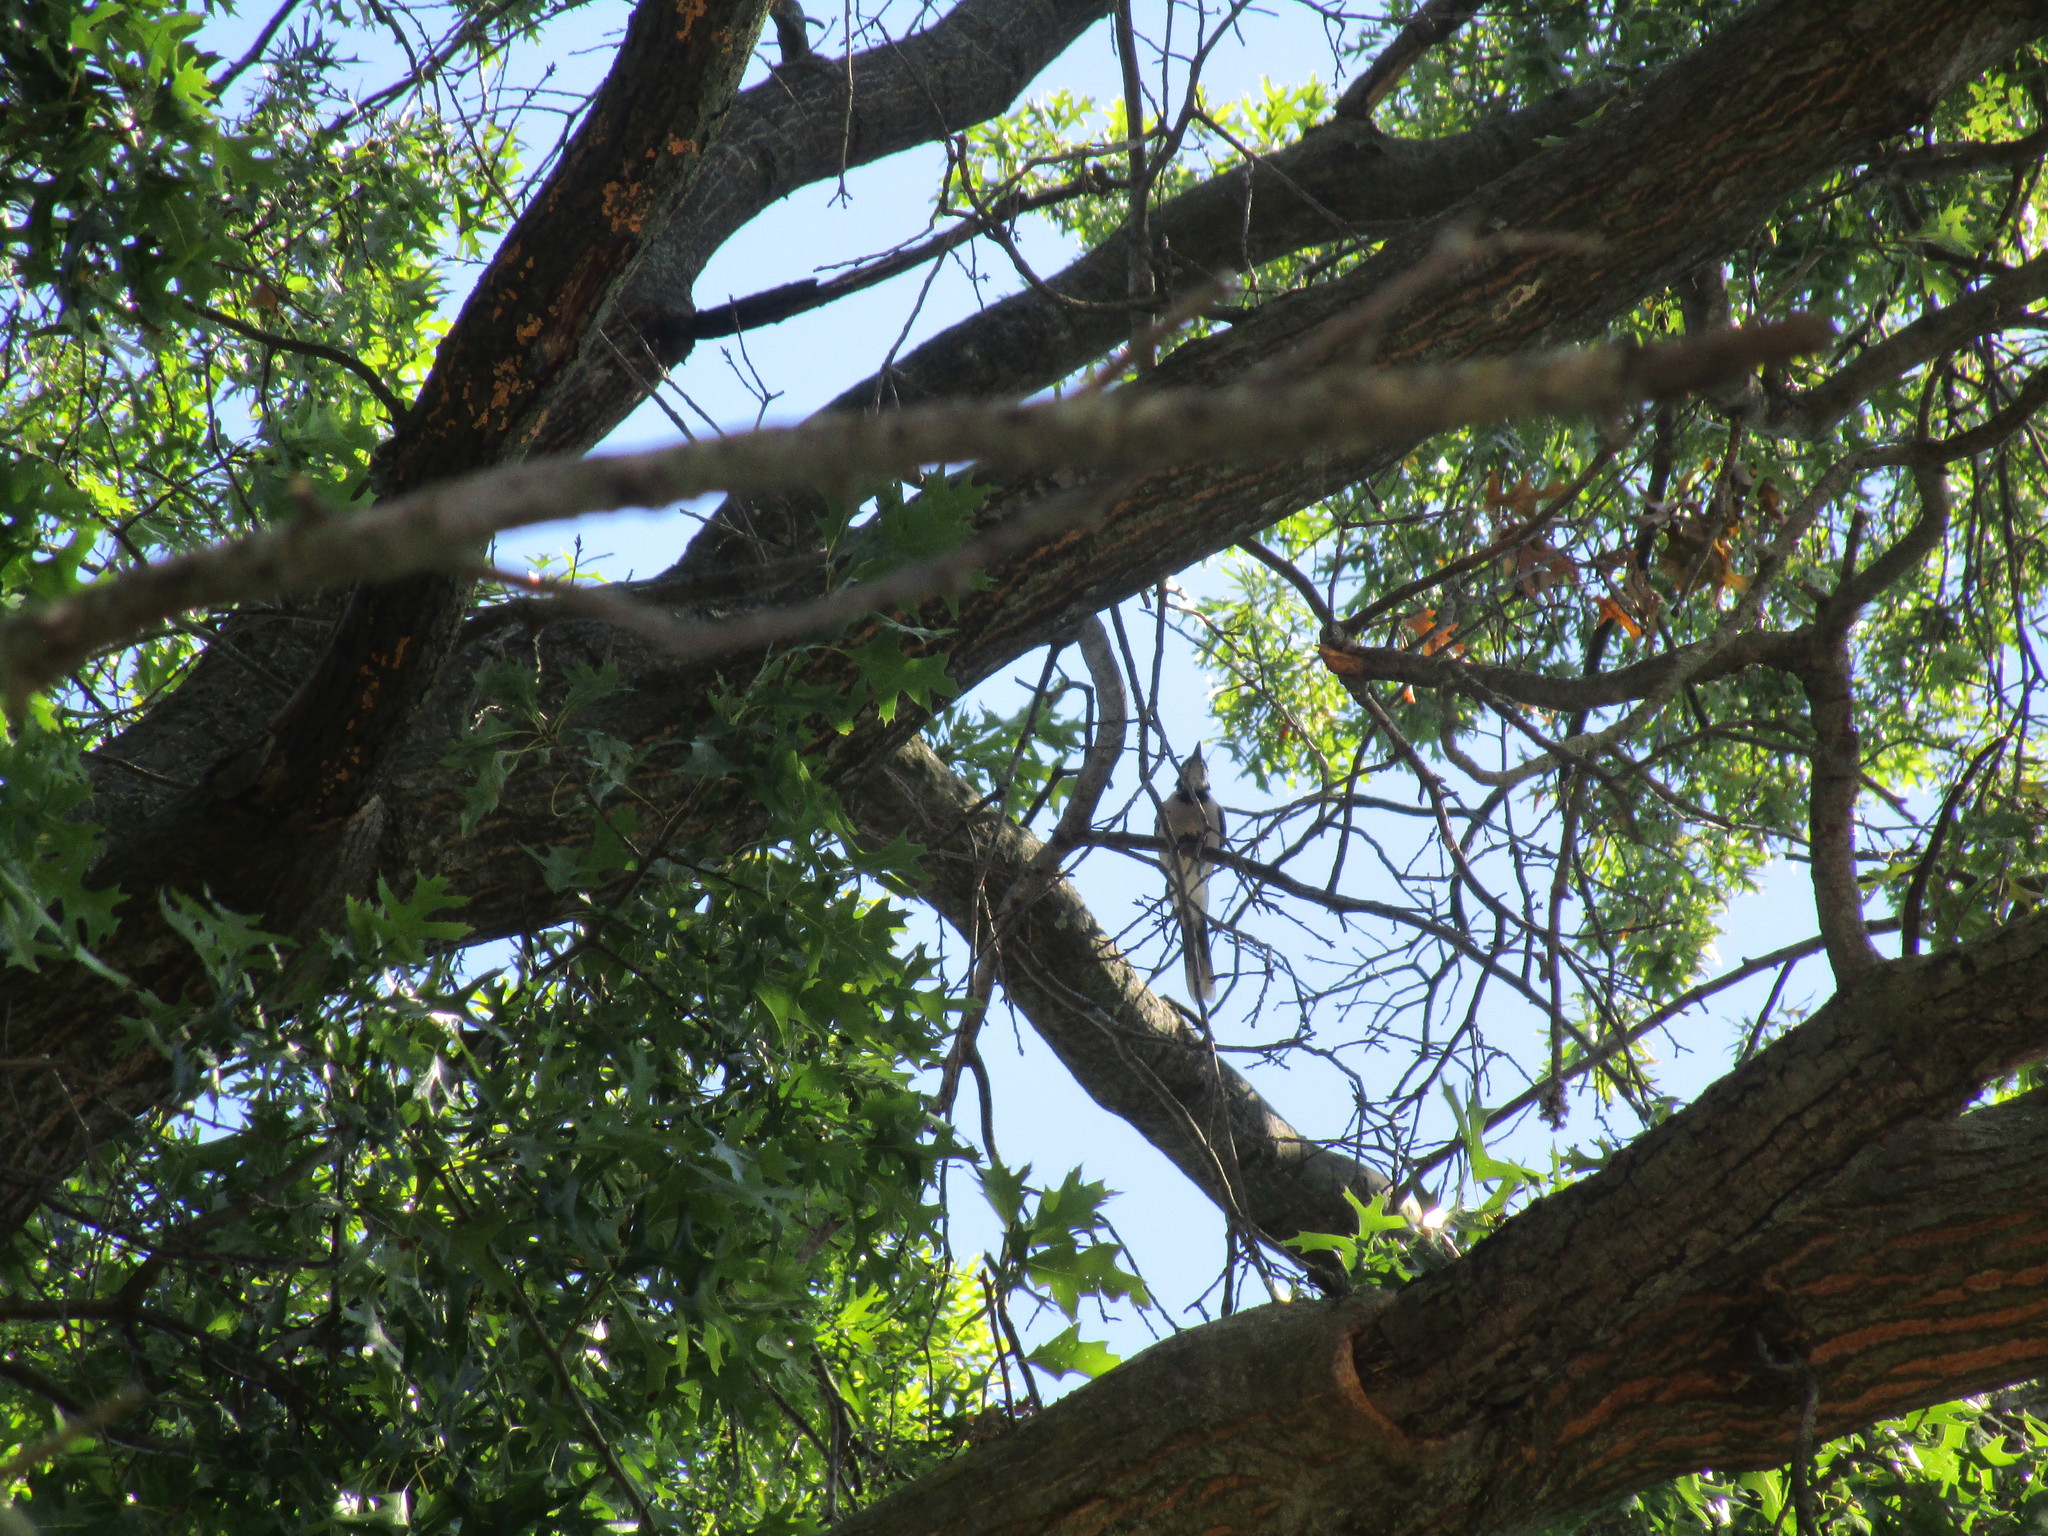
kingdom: Animalia
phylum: Chordata
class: Aves
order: Passeriformes
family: Corvidae
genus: Cyanocitta
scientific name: Cyanocitta cristata
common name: Blue jay
